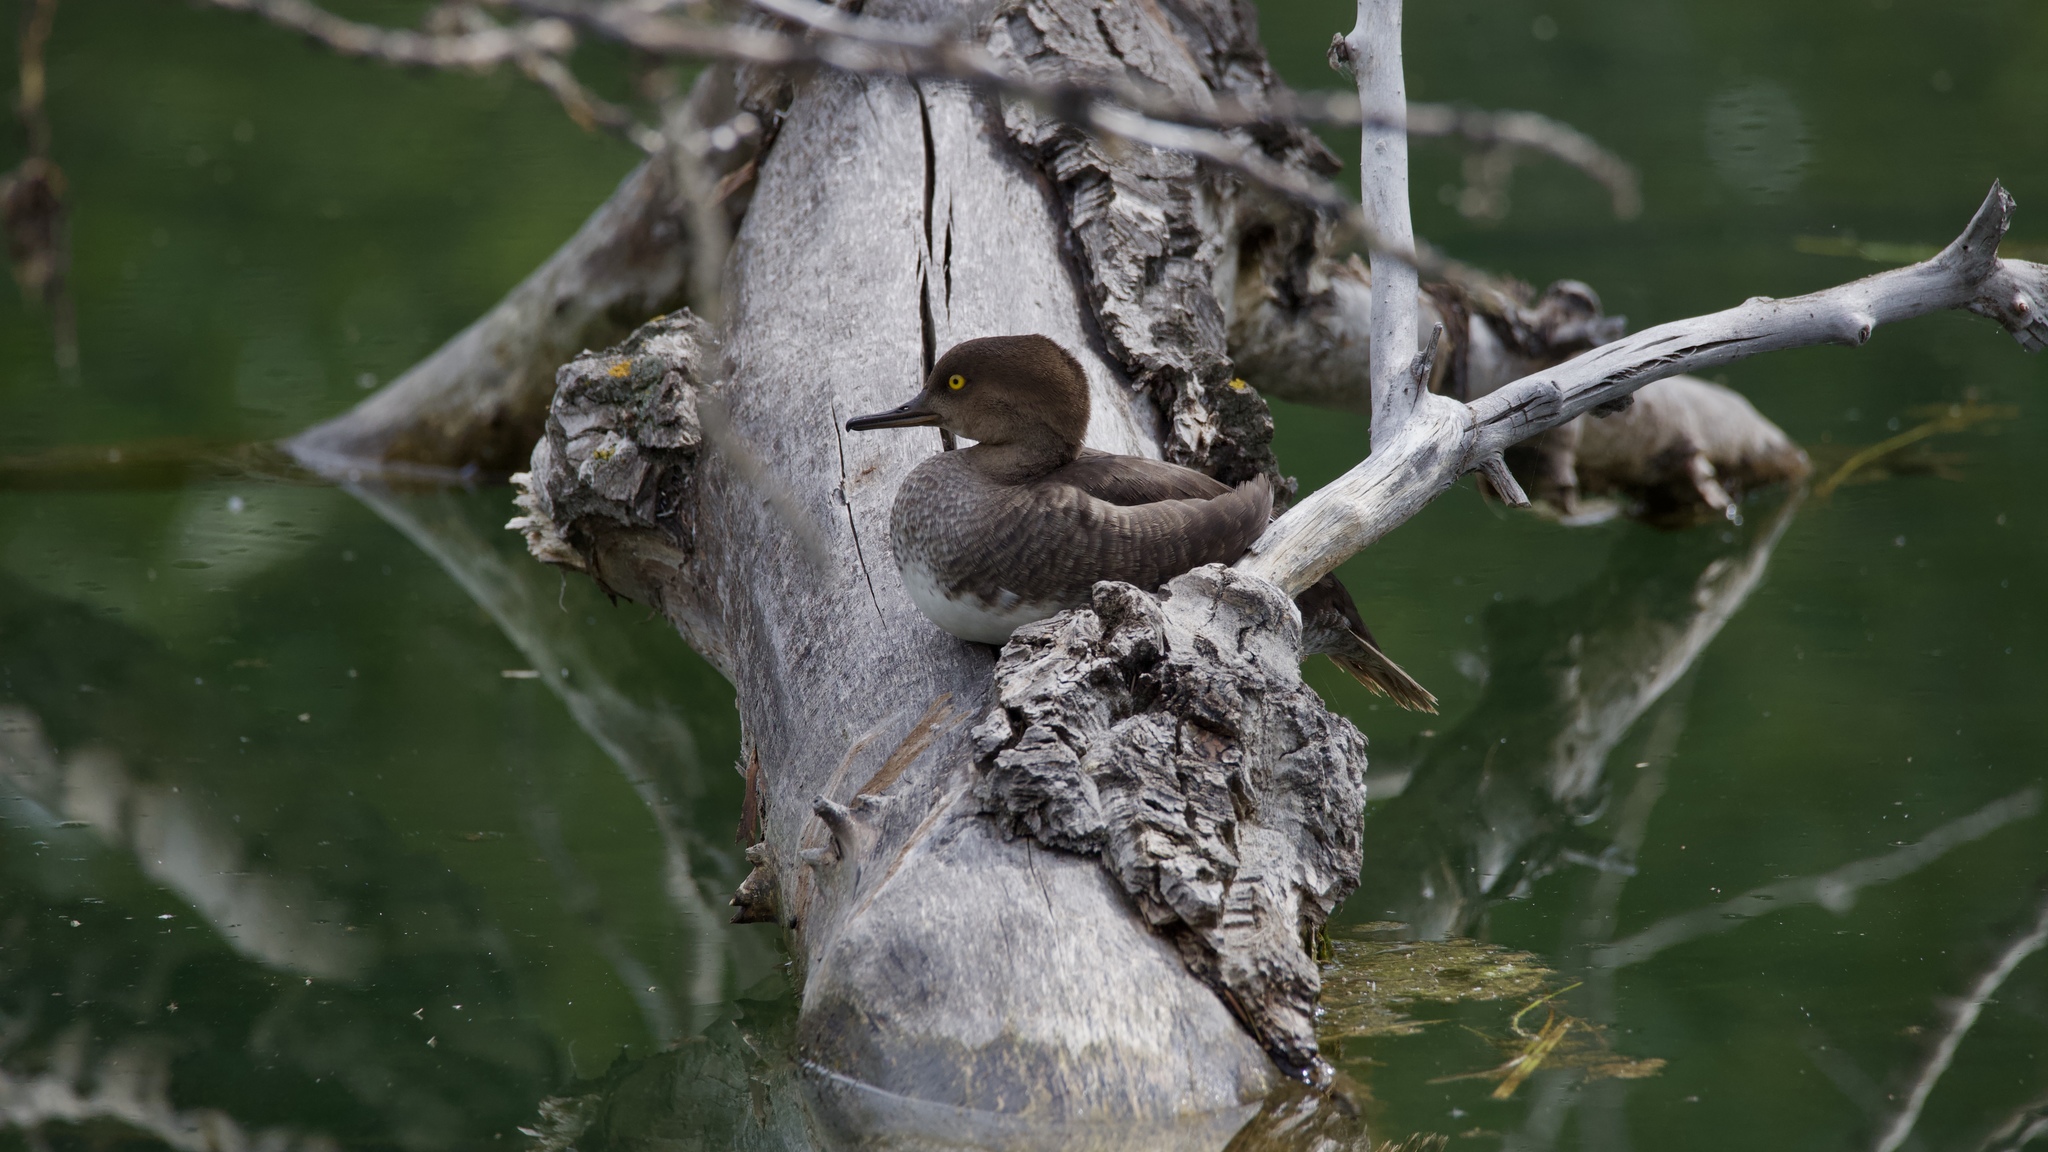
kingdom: Animalia
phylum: Chordata
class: Aves
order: Anseriformes
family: Anatidae
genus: Lophodytes
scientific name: Lophodytes cucullatus
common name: Hooded merganser
